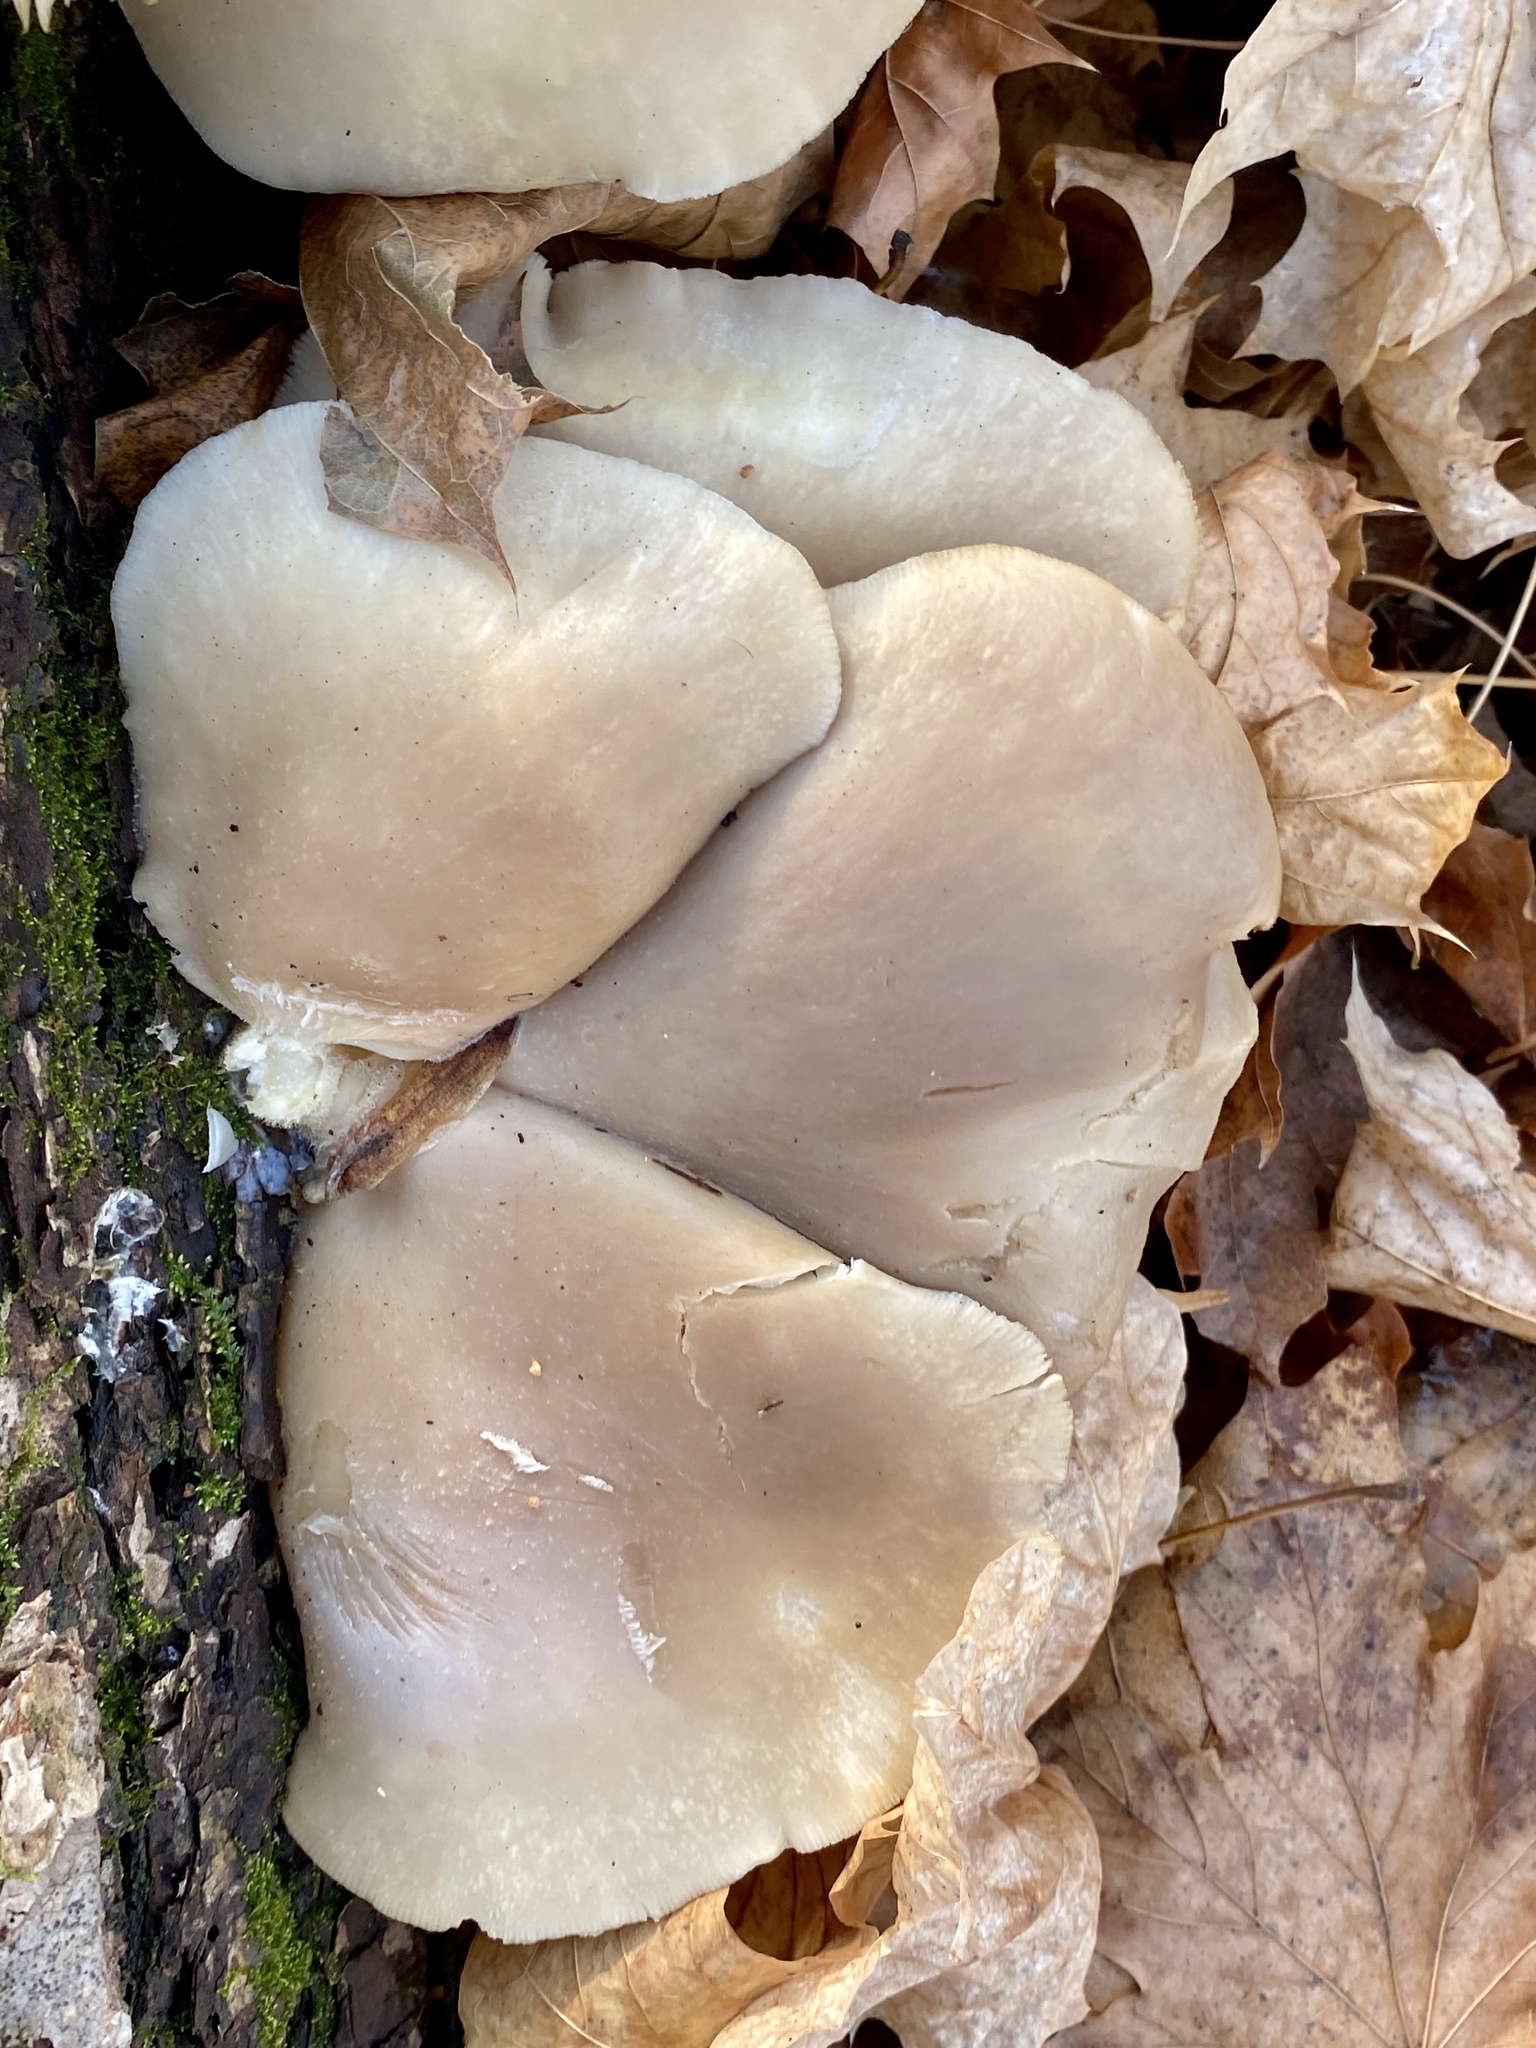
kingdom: Fungi
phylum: Basidiomycota
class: Agaricomycetes
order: Agaricales
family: Pleurotaceae
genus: Pleurotus
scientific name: Pleurotus ostreatus
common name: Oyster mushroom
